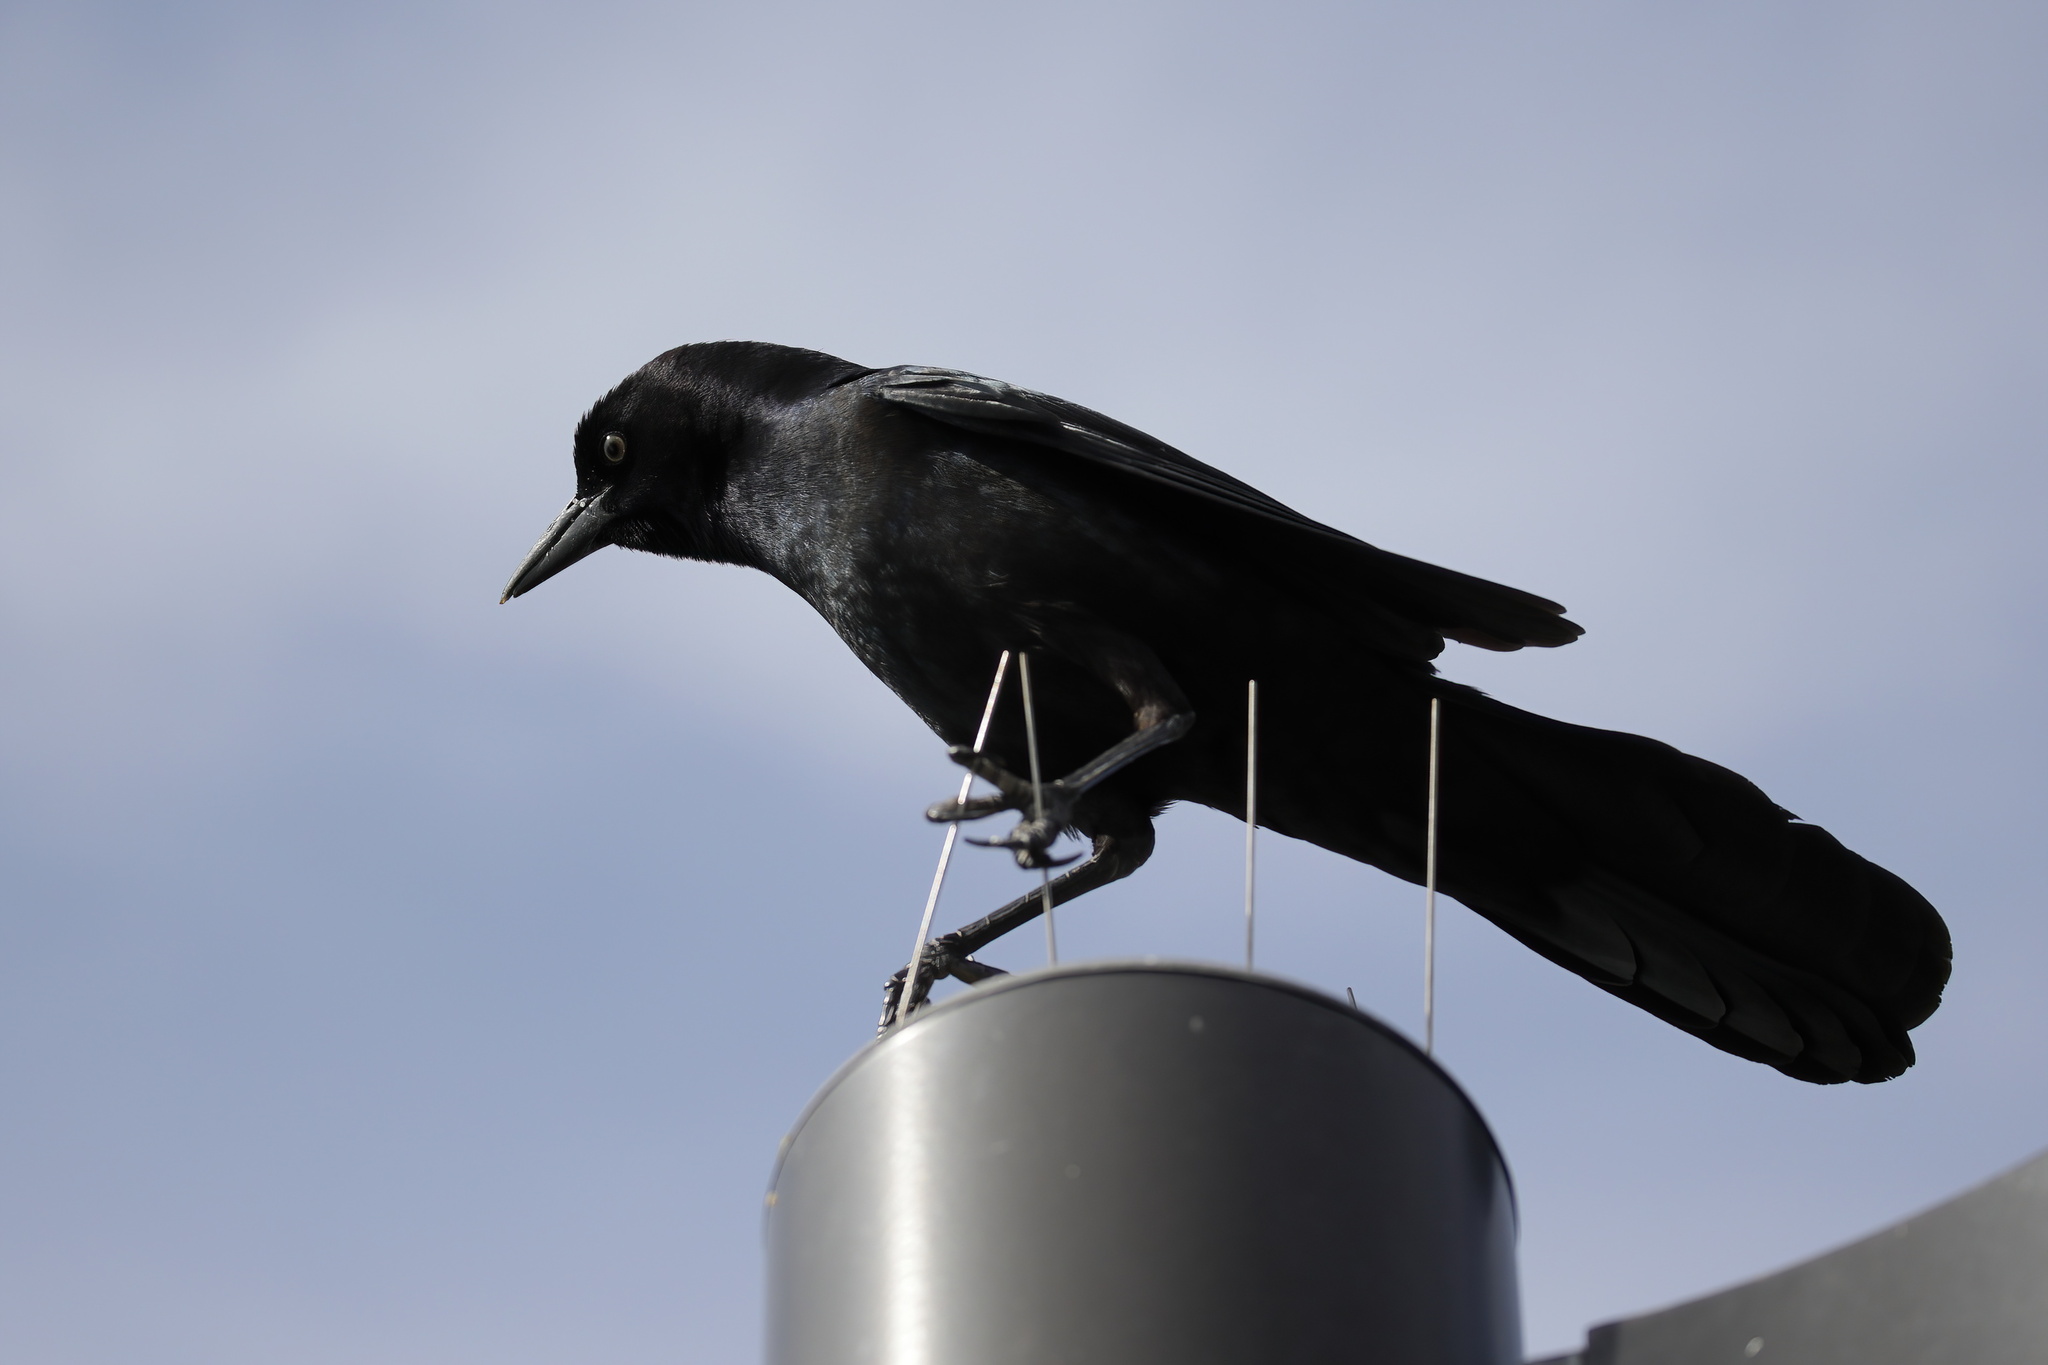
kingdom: Animalia
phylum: Chordata
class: Aves
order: Passeriformes
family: Icteridae
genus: Quiscalus
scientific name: Quiscalus major
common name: Boat-tailed grackle
